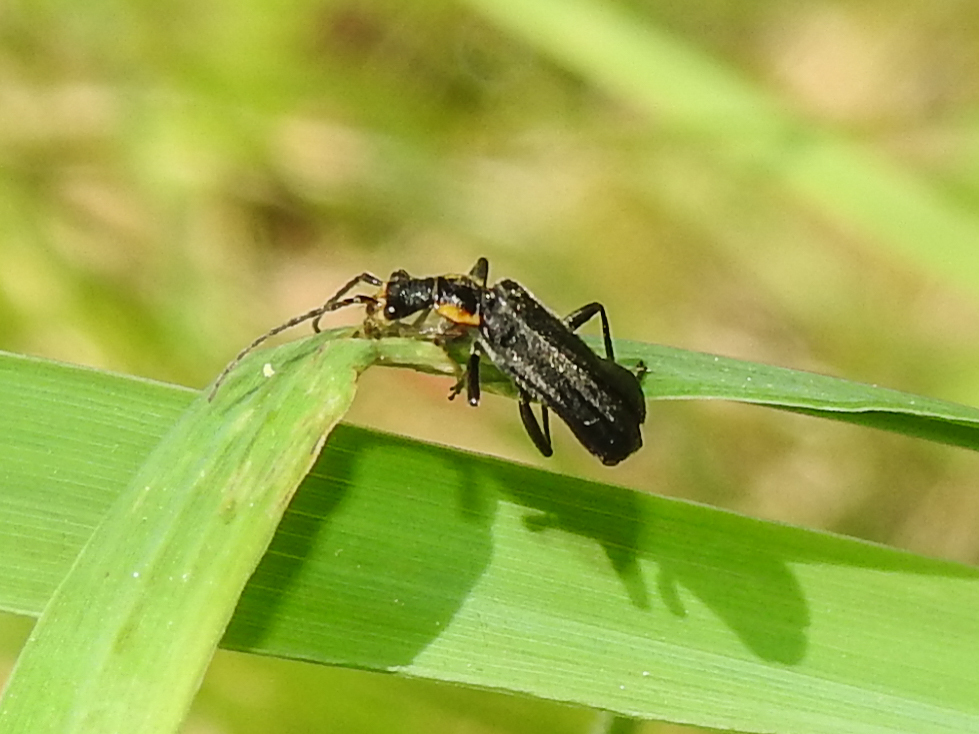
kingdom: Animalia
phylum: Arthropoda
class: Insecta
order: Coleoptera
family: Cantharidae
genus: Podabrus
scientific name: Podabrus rugosulus
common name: Wrinkled soldier beetle
